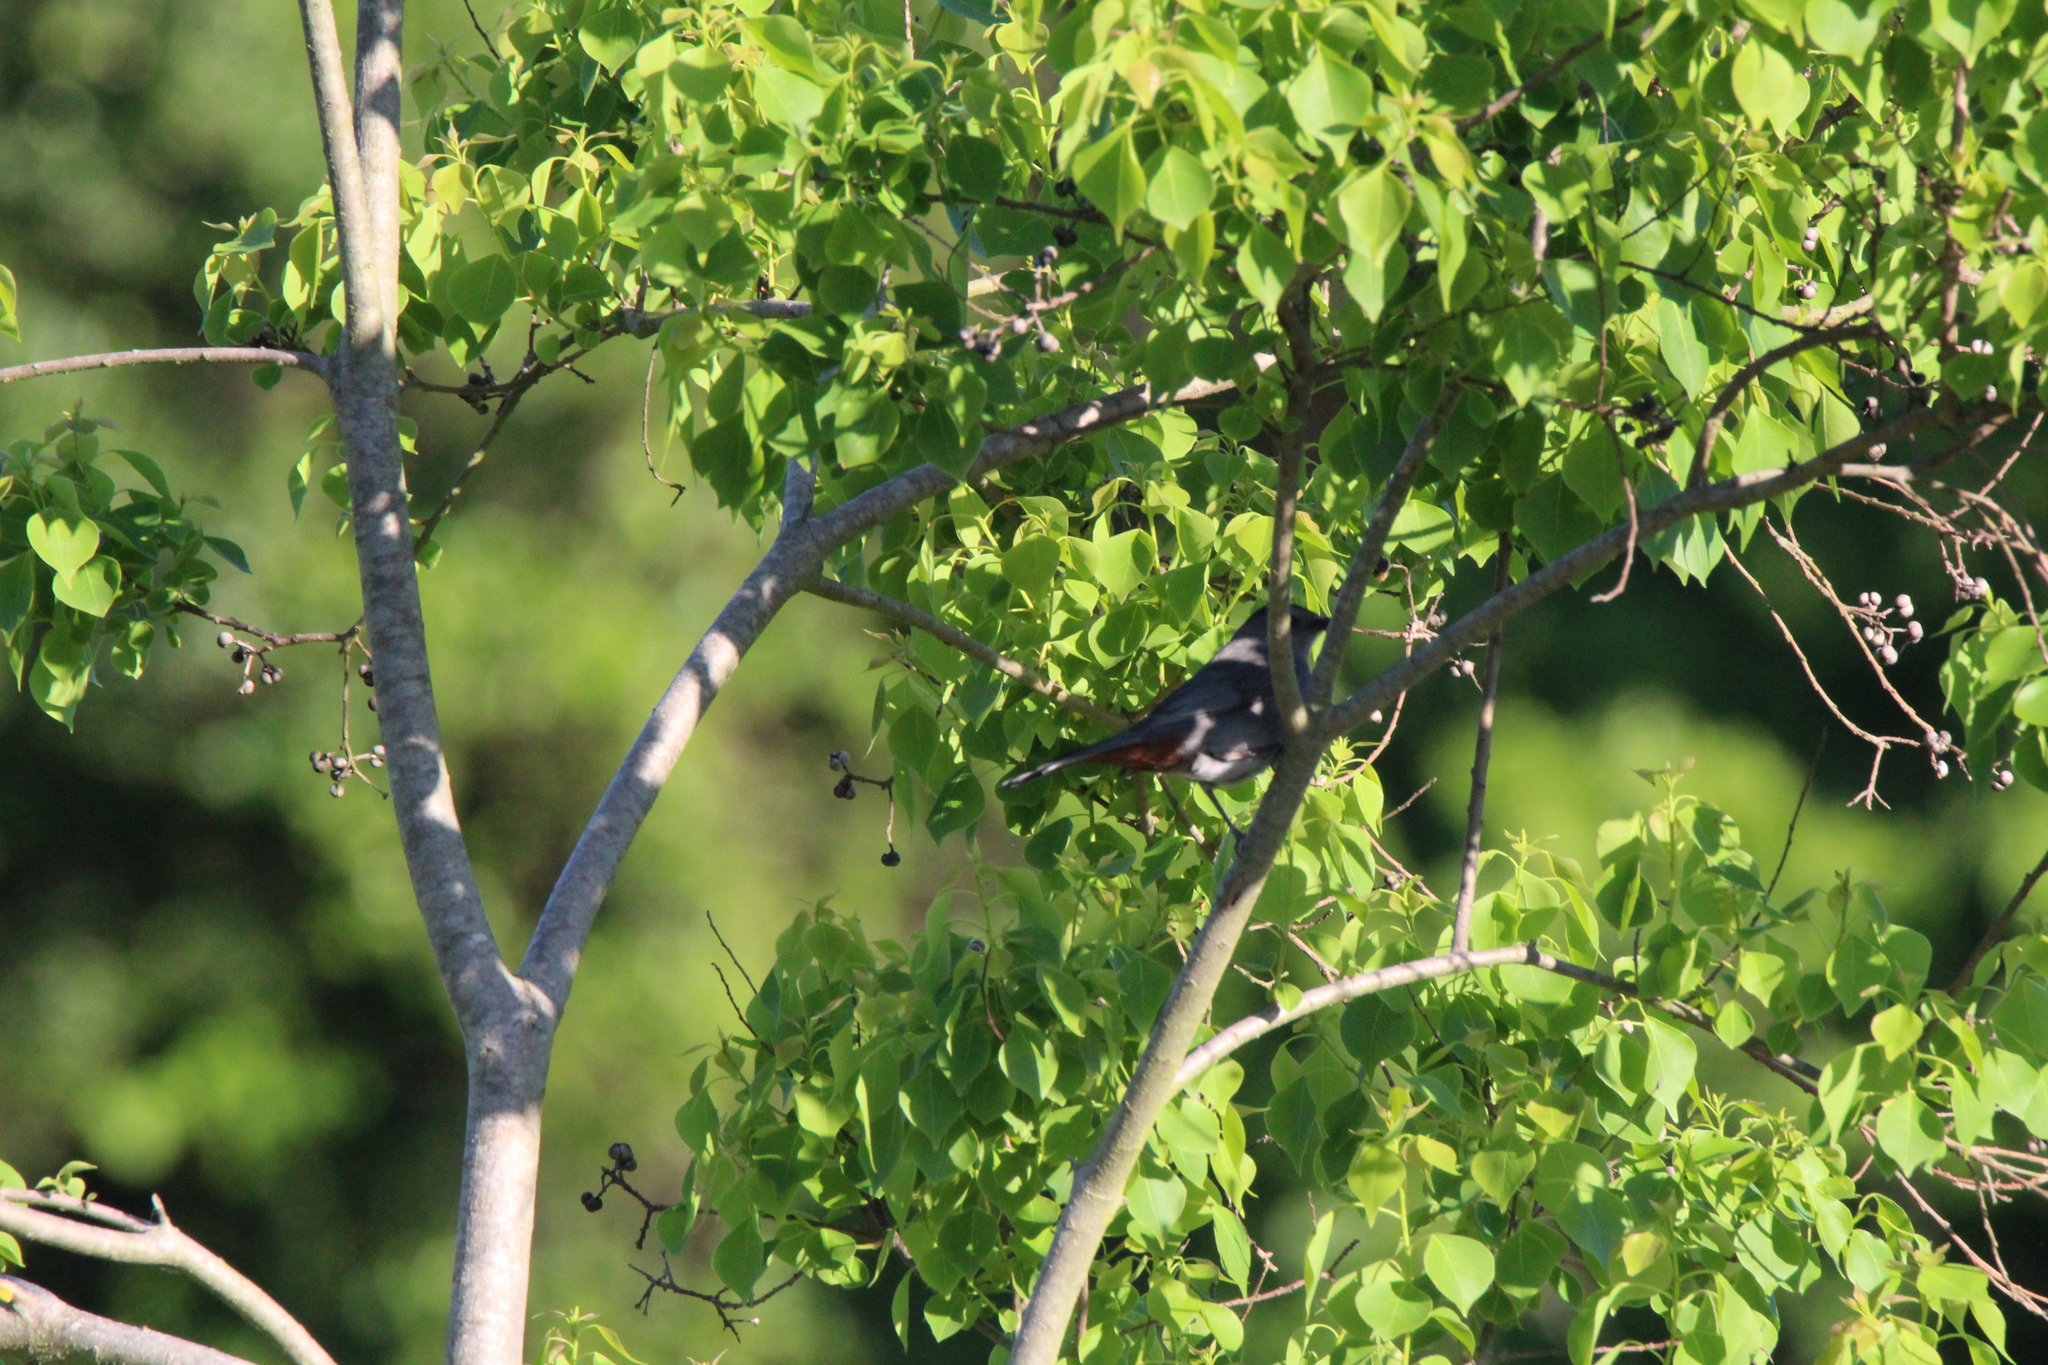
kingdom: Animalia
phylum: Chordata
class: Aves
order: Passeriformes
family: Mimidae
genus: Dumetella
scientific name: Dumetella carolinensis
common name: Gray catbird
